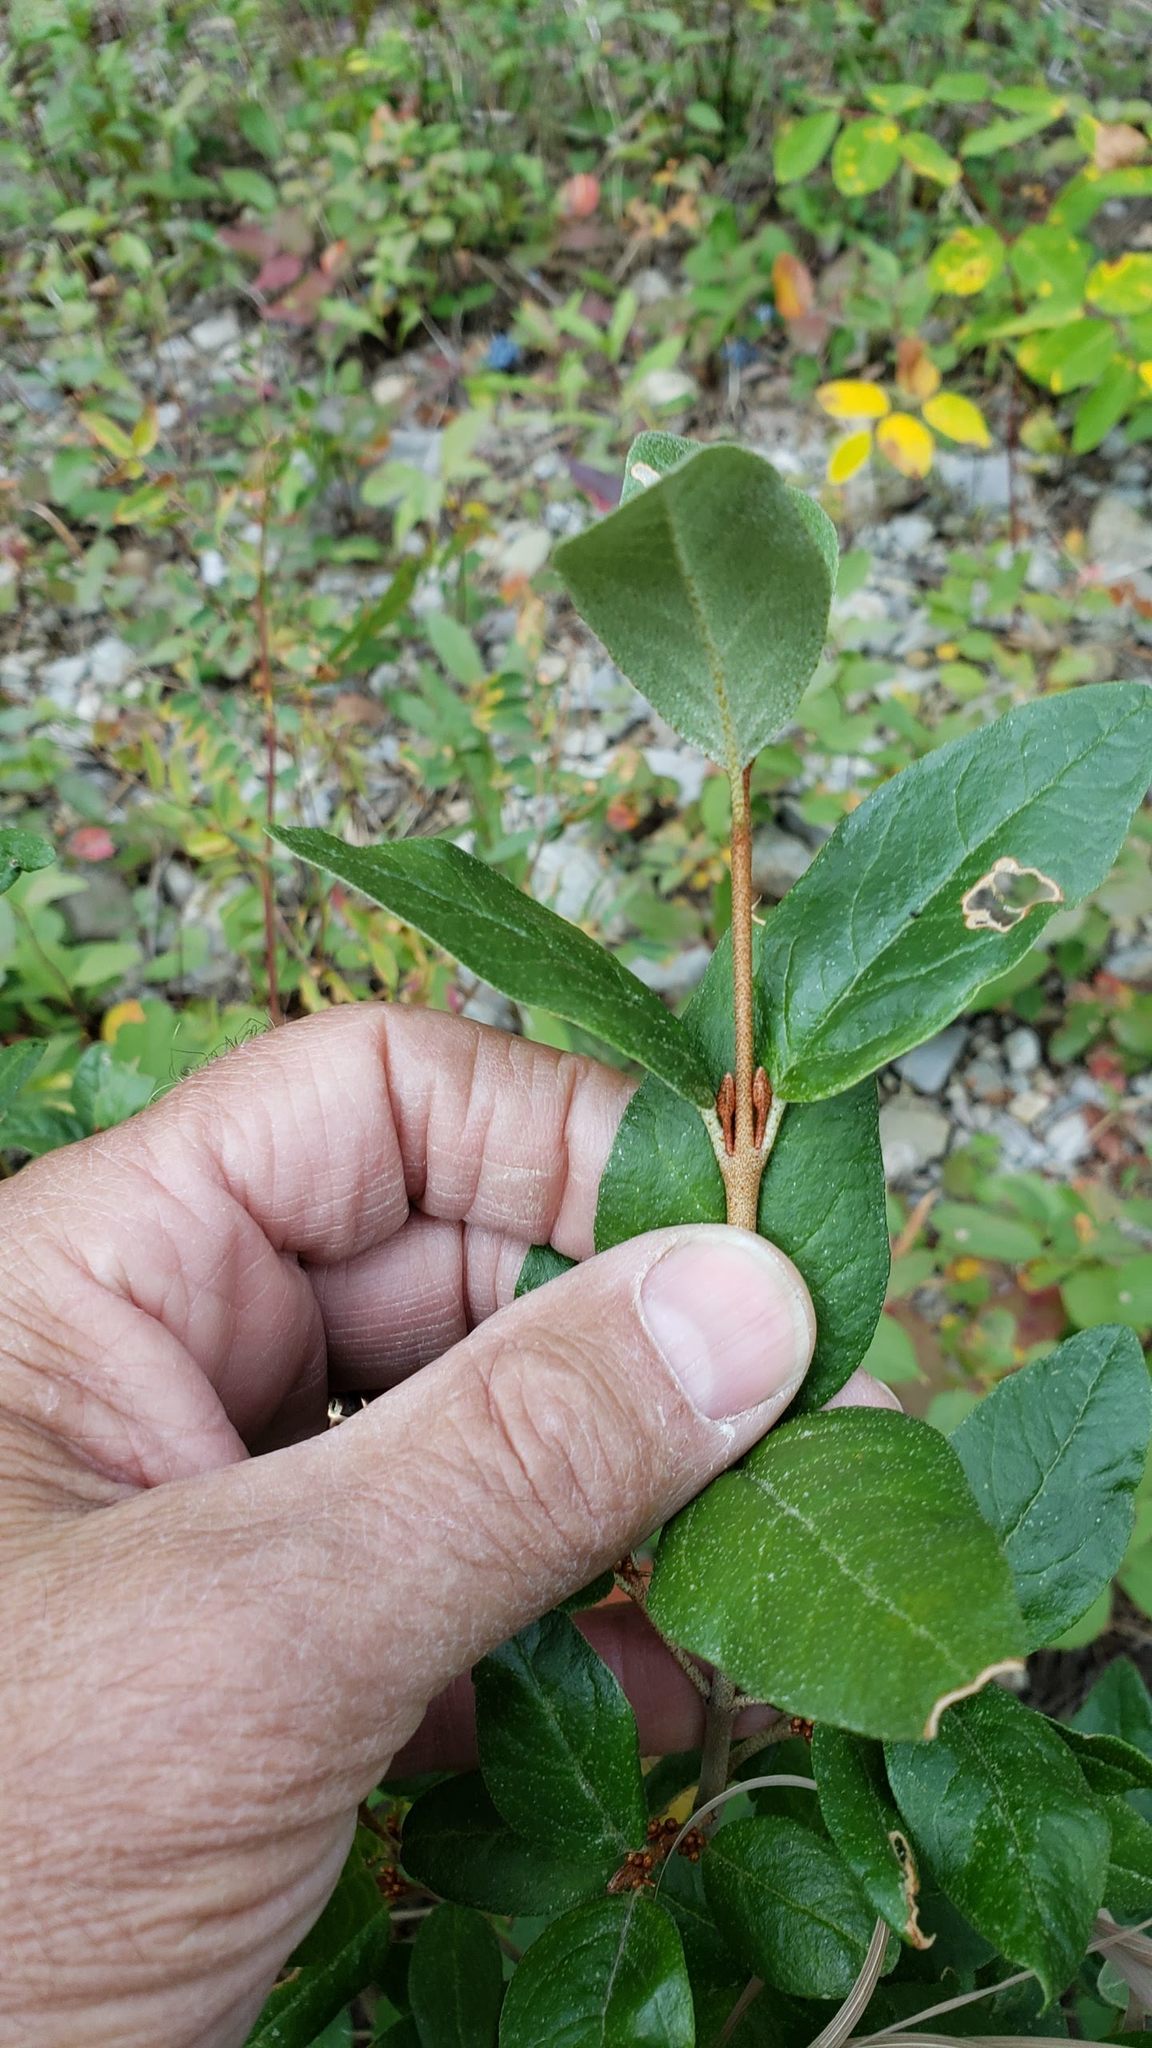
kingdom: Plantae
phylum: Tracheophyta
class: Magnoliopsida
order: Rosales
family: Elaeagnaceae
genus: Shepherdia
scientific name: Shepherdia canadensis
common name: Soapberry
